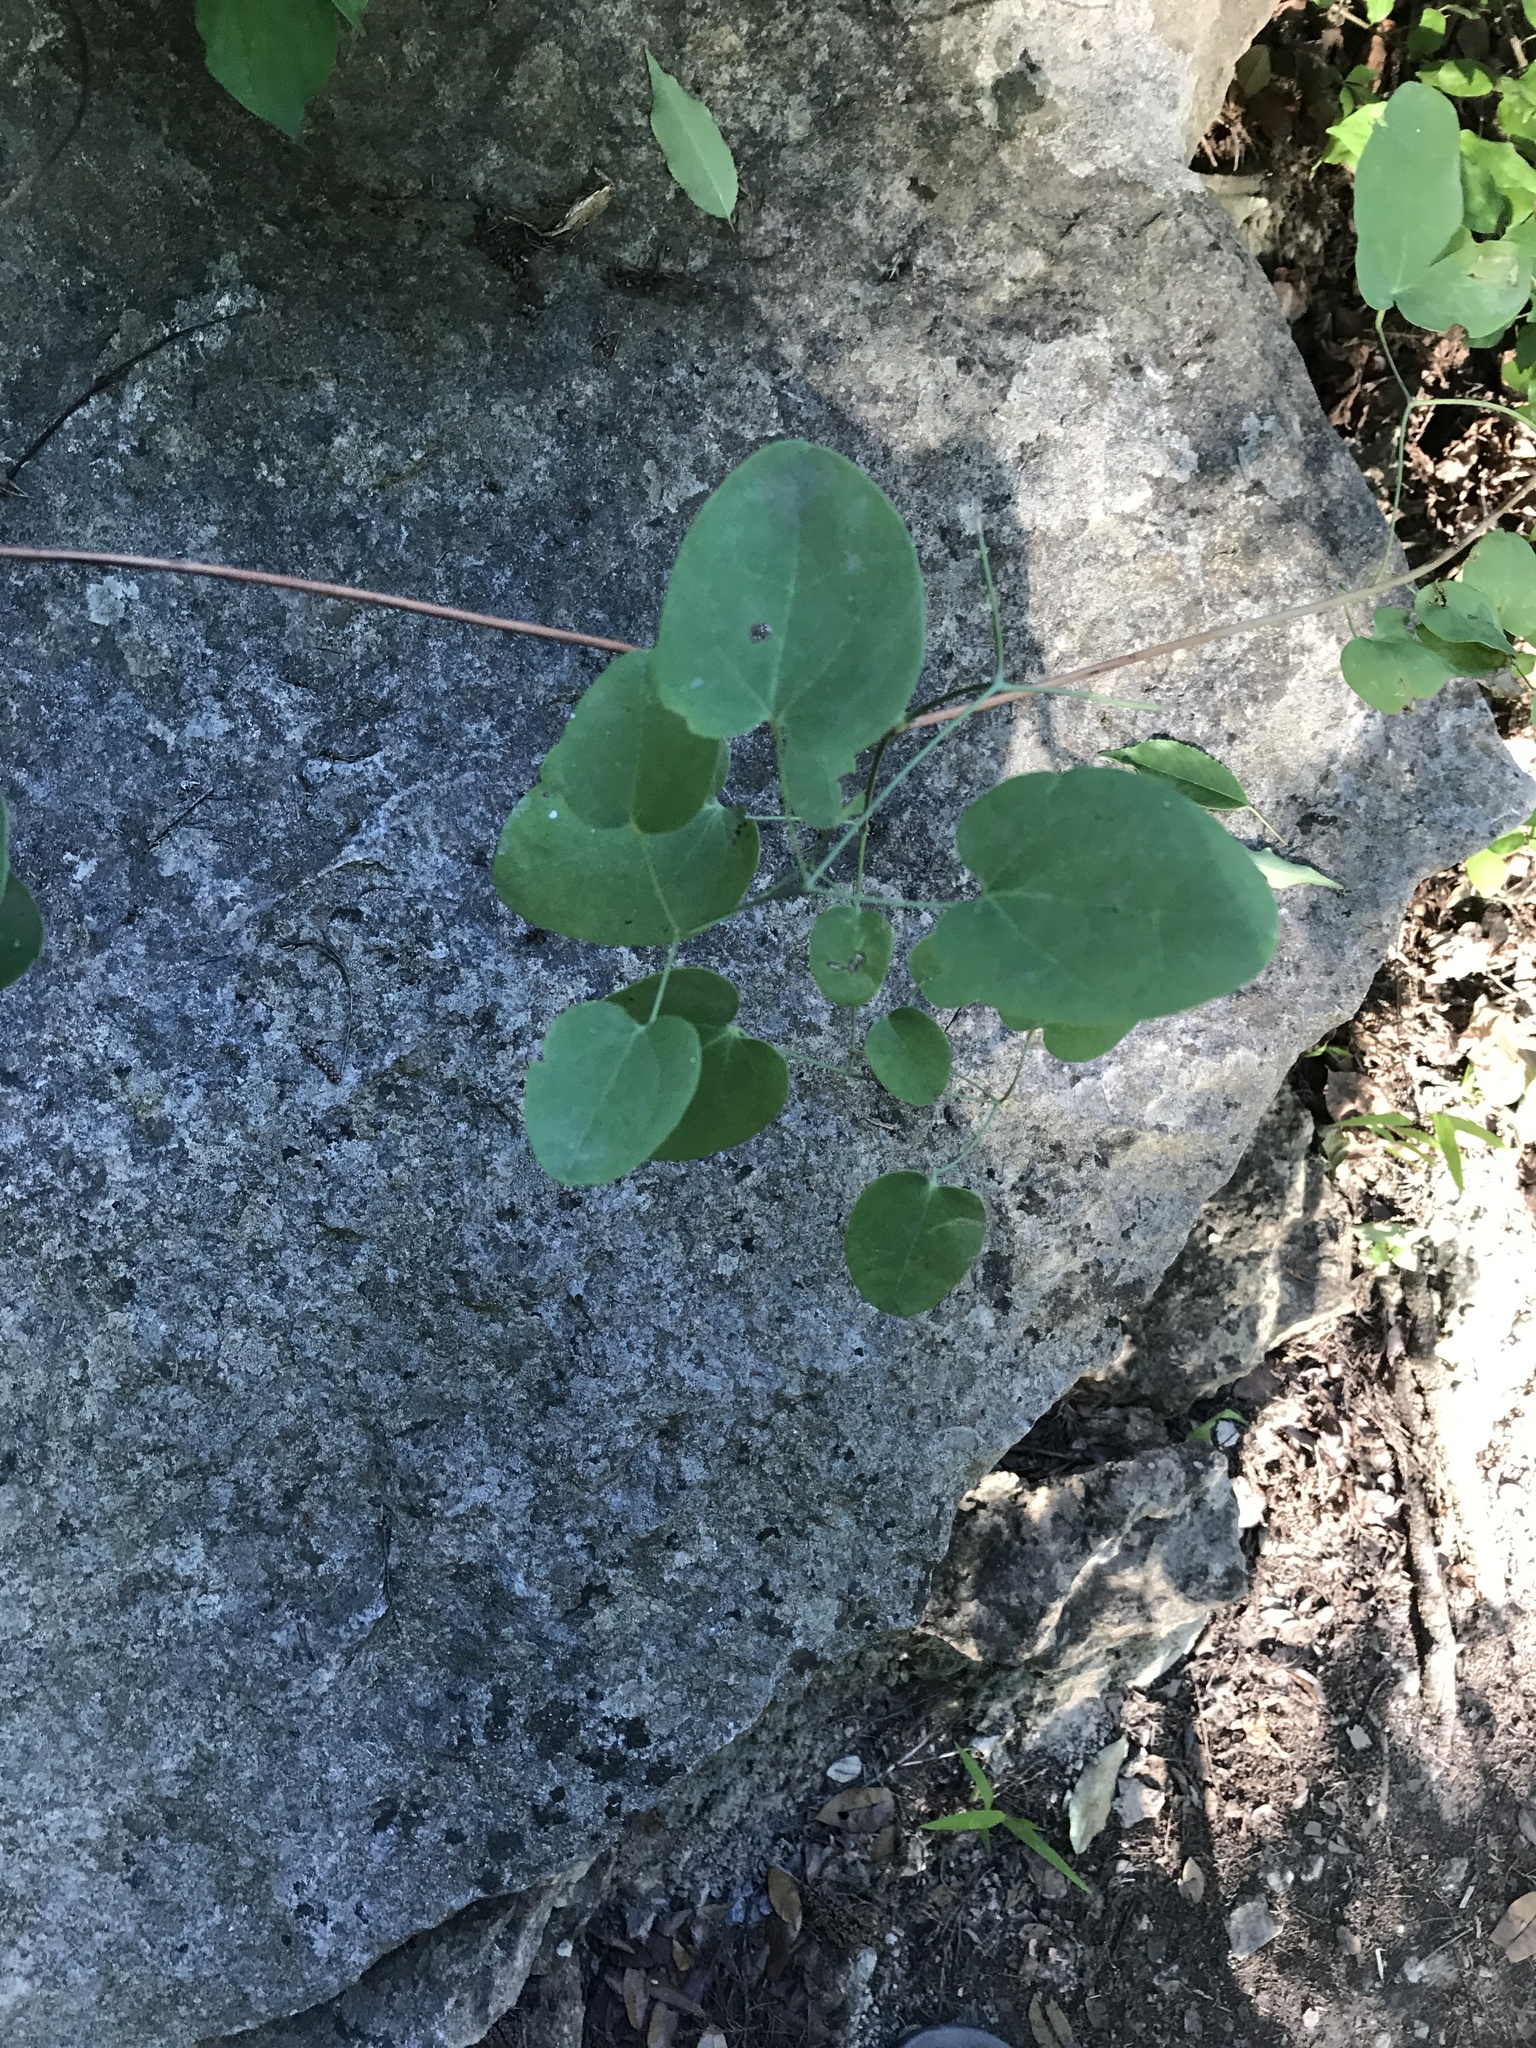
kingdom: Plantae
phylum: Tracheophyta
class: Magnoliopsida
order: Ranunculales
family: Ranunculaceae
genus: Clematis
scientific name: Clematis texensis
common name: Crimson clematis
